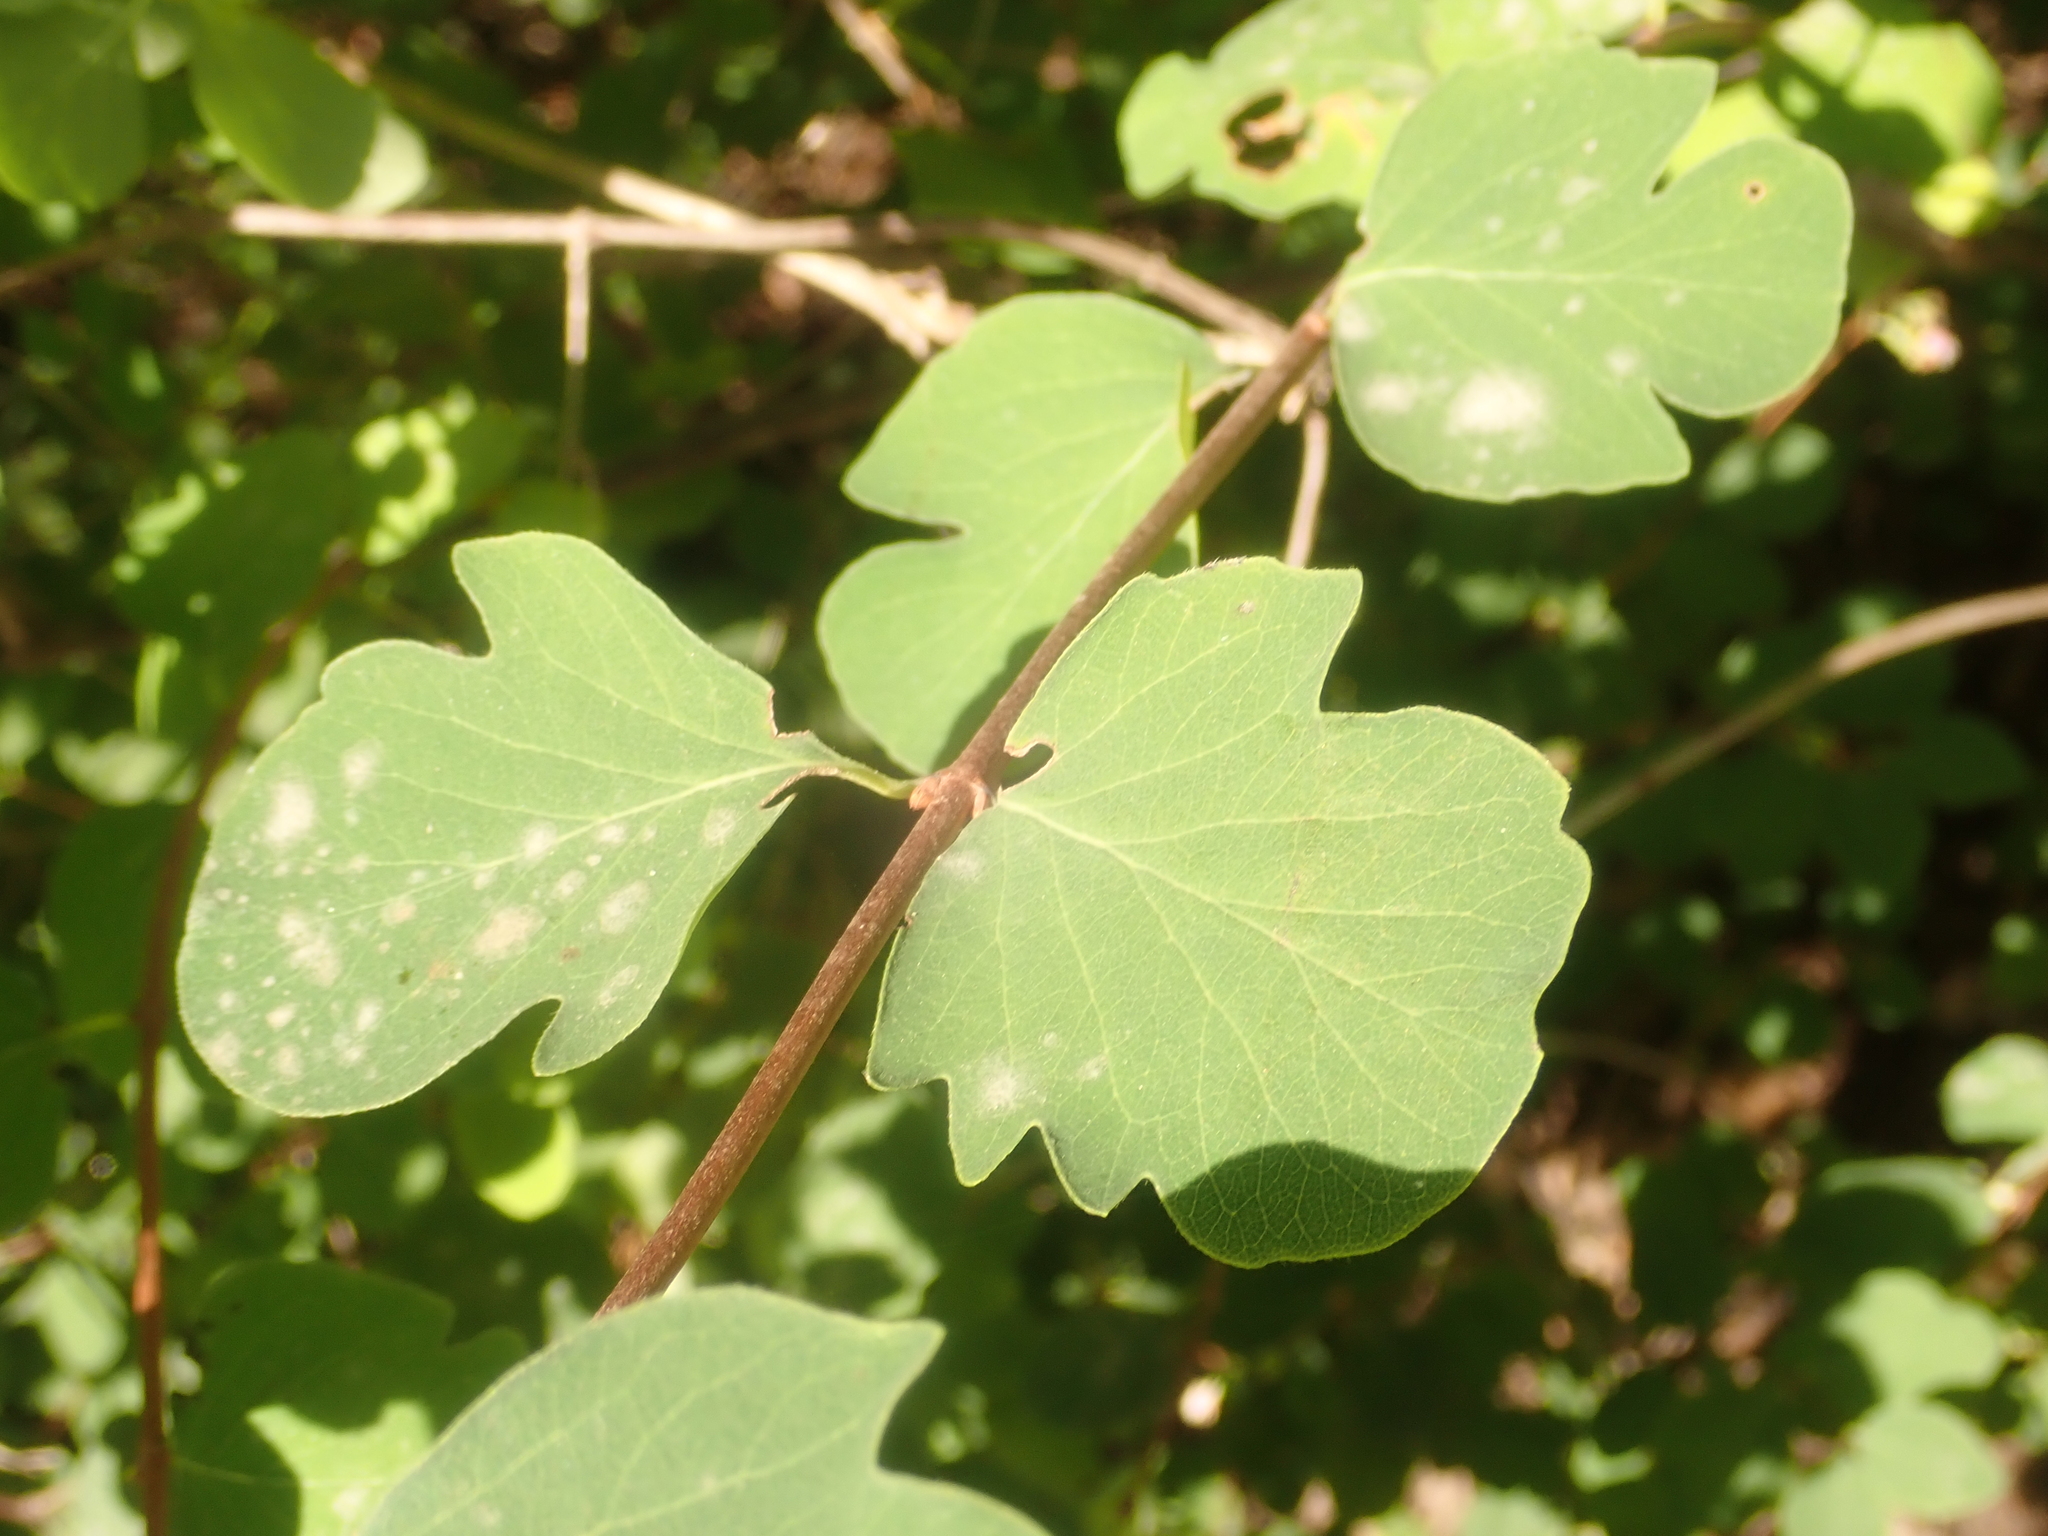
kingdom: Plantae
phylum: Tracheophyta
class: Magnoliopsida
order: Dipsacales
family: Caprifoliaceae
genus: Symphoricarpos
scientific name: Symphoricarpos albus
